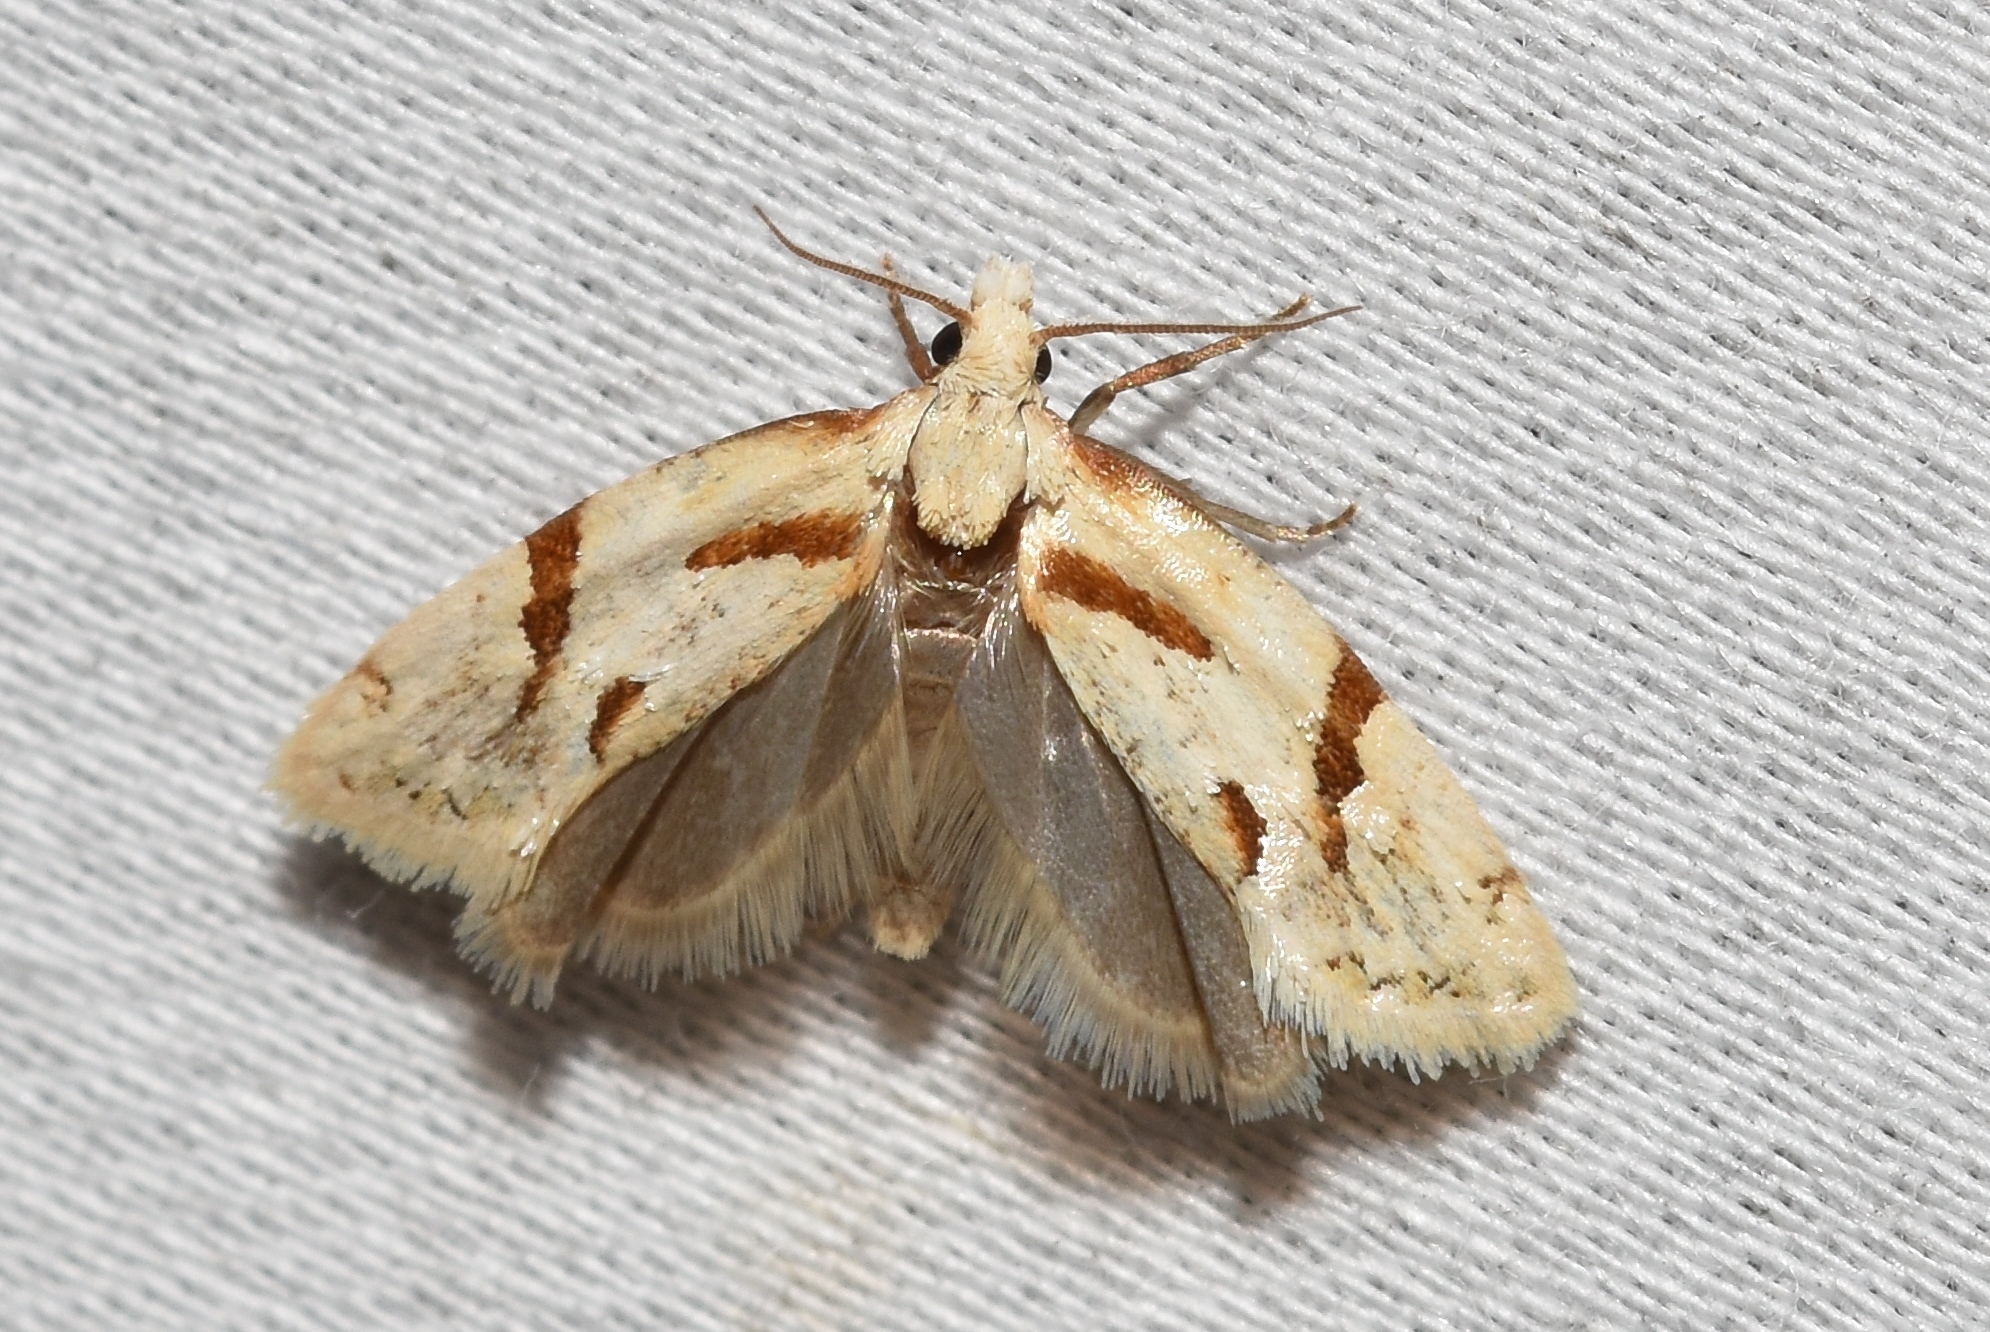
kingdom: Animalia
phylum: Arthropoda
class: Insecta
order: Lepidoptera
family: Tortricidae
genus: Aethes
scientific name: Aethes baloghi
